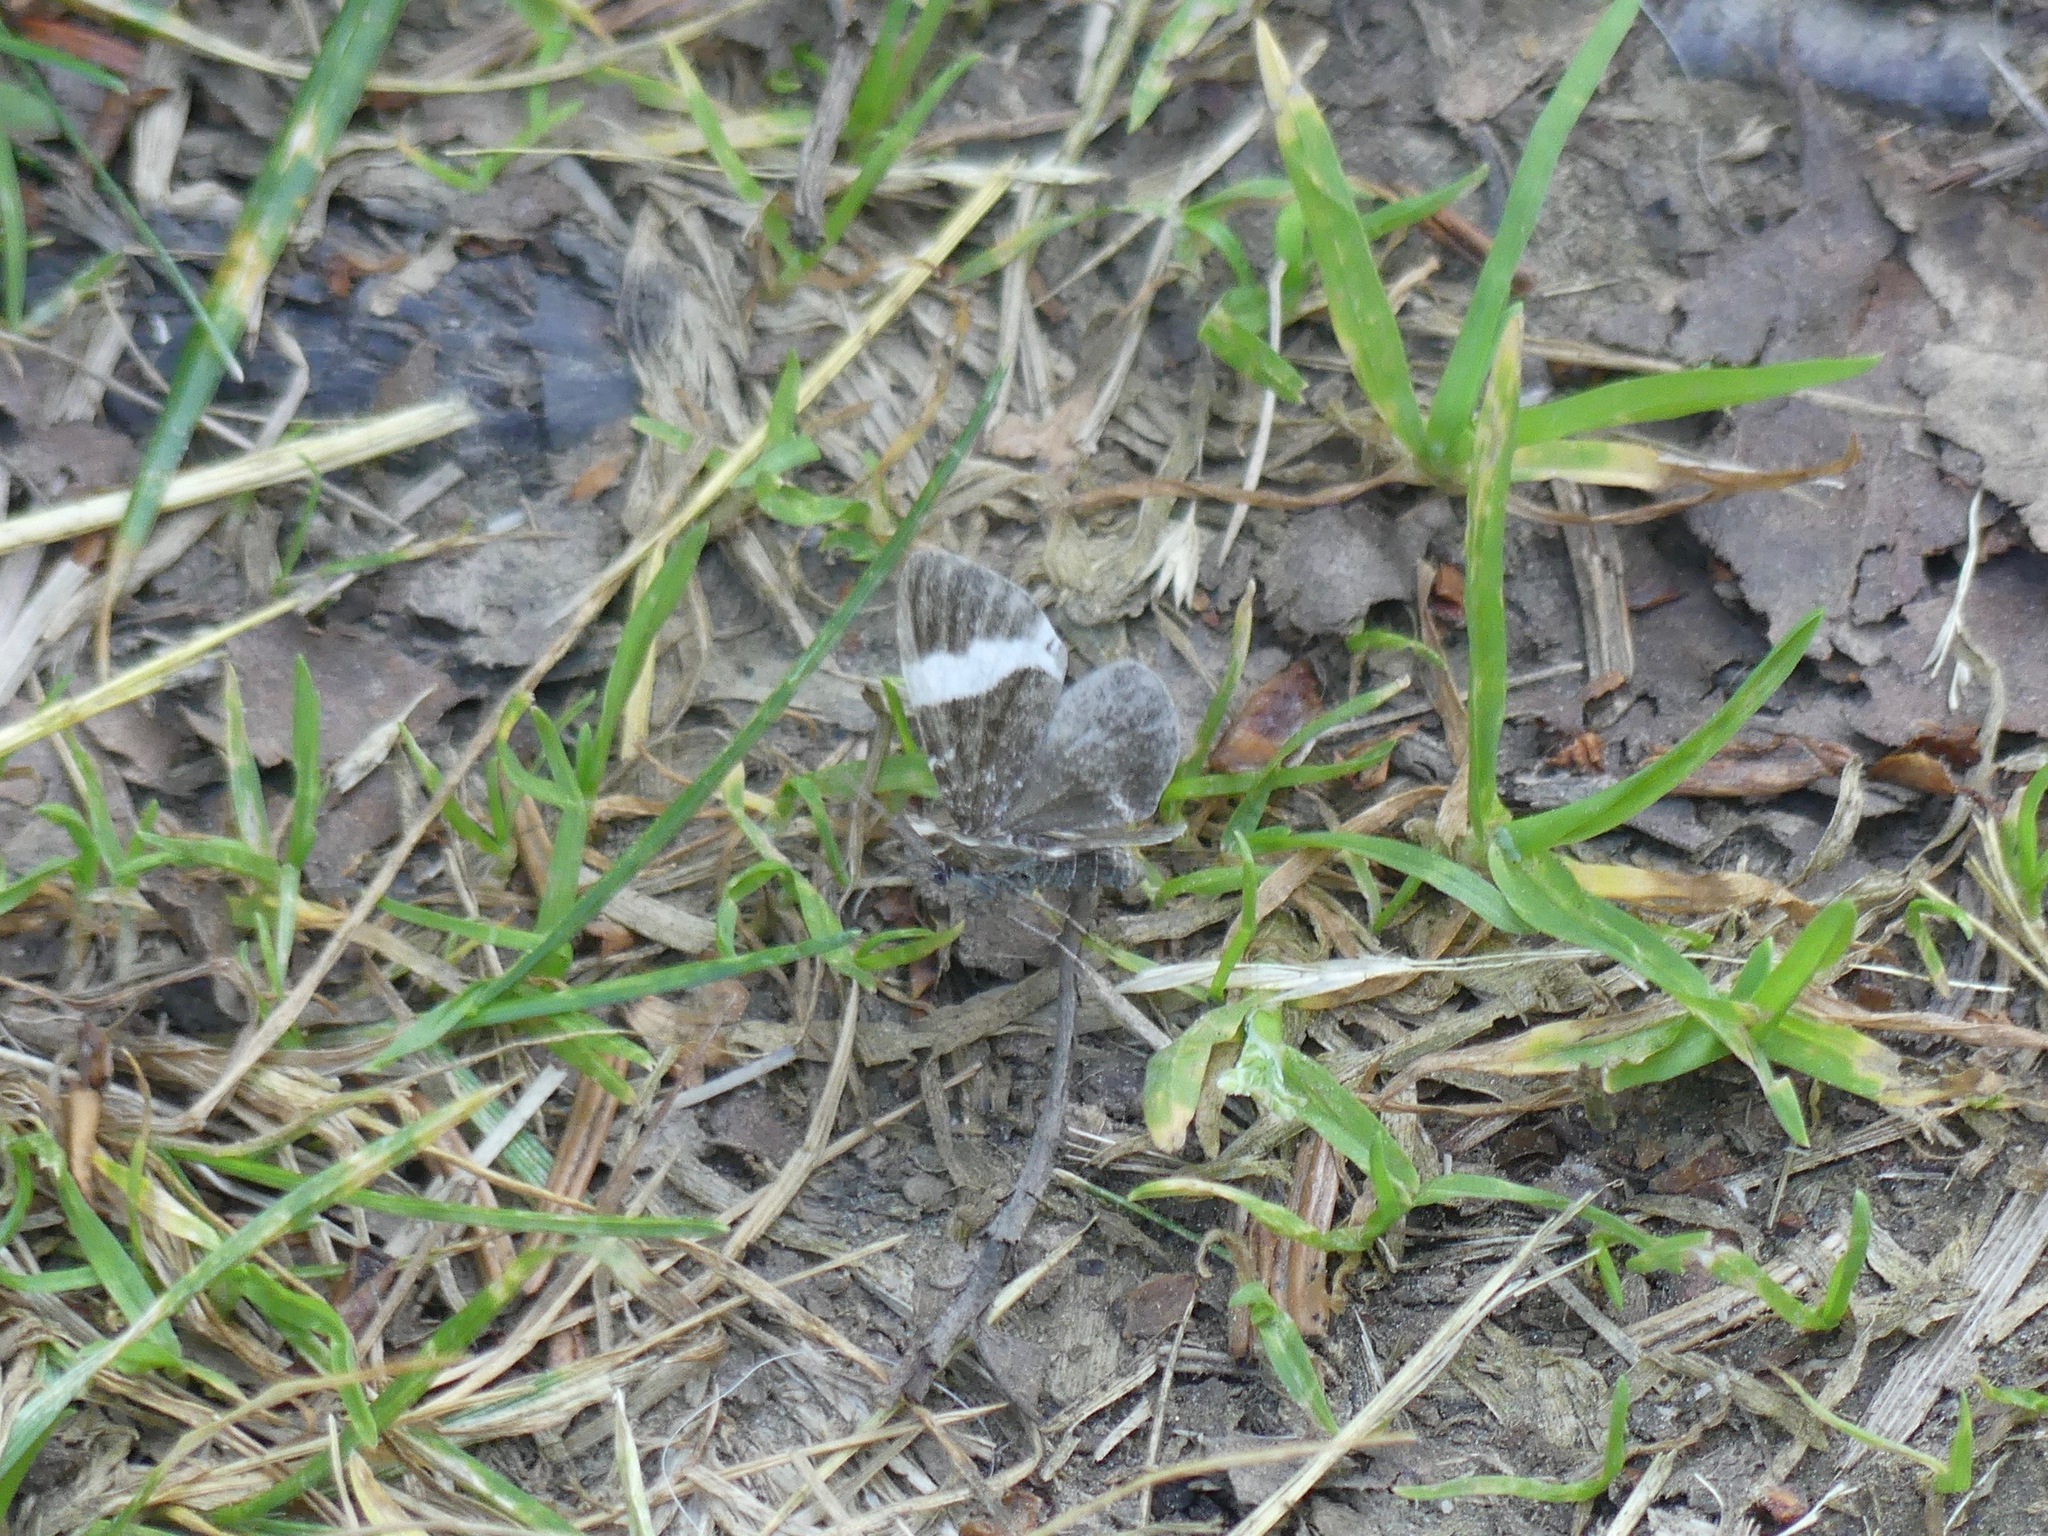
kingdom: Animalia
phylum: Arthropoda
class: Insecta
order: Lepidoptera
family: Geometridae
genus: Trichodezia
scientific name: Trichodezia albovittata
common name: White striped black
